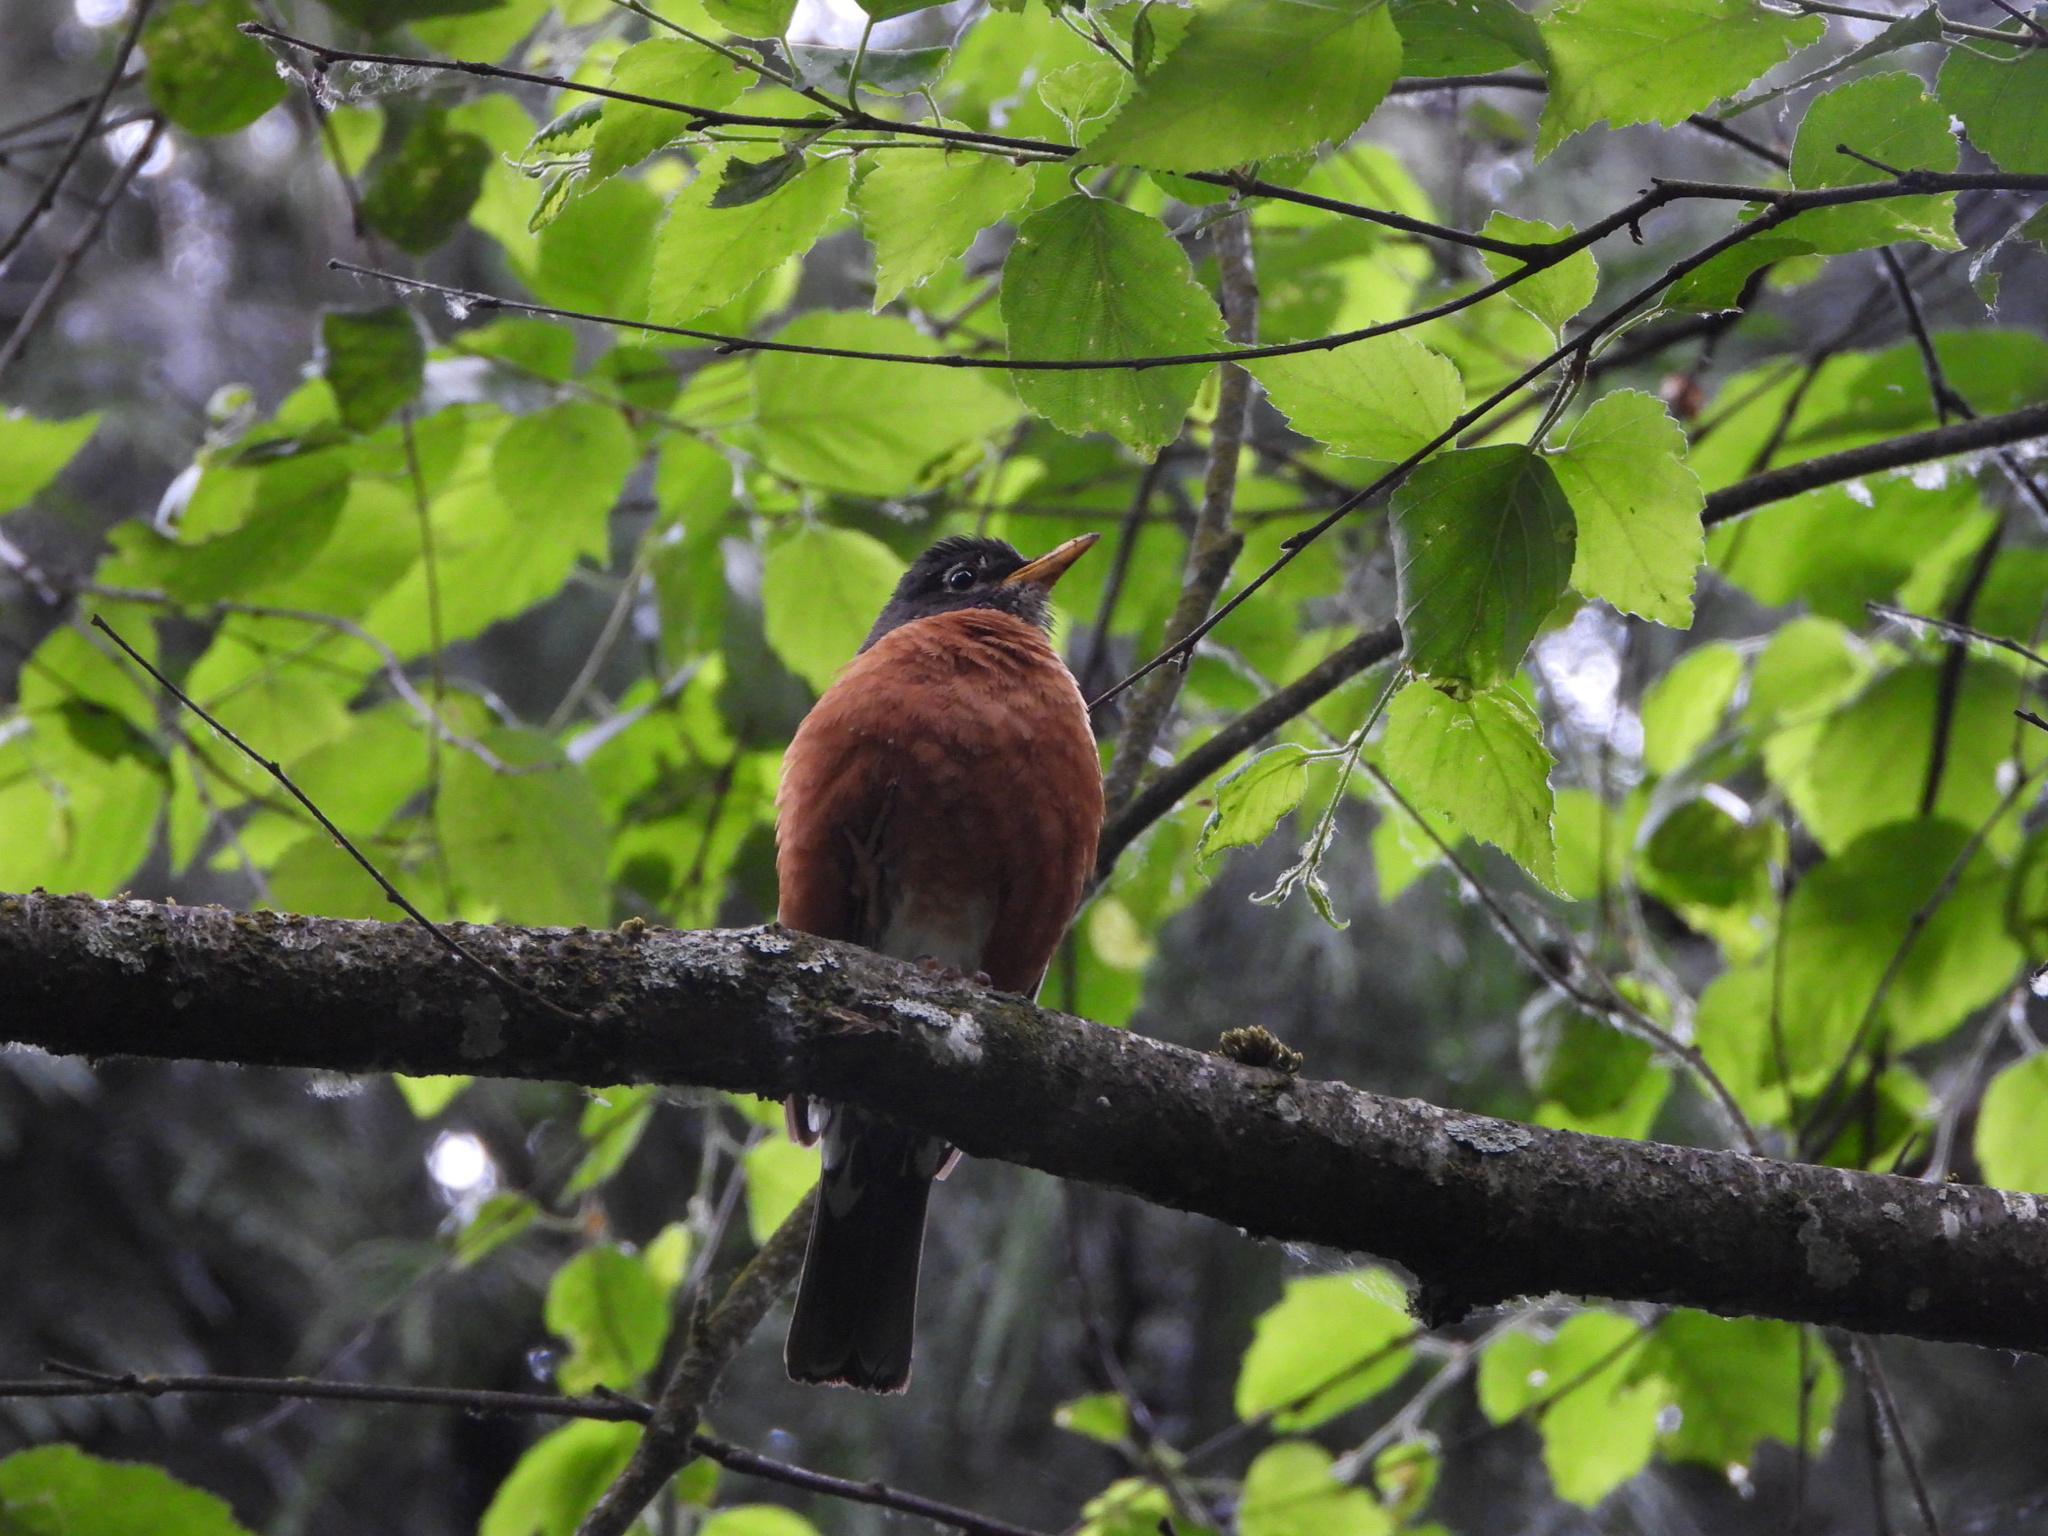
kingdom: Animalia
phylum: Chordata
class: Aves
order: Passeriformes
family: Turdidae
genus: Turdus
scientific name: Turdus migratorius
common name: American robin
